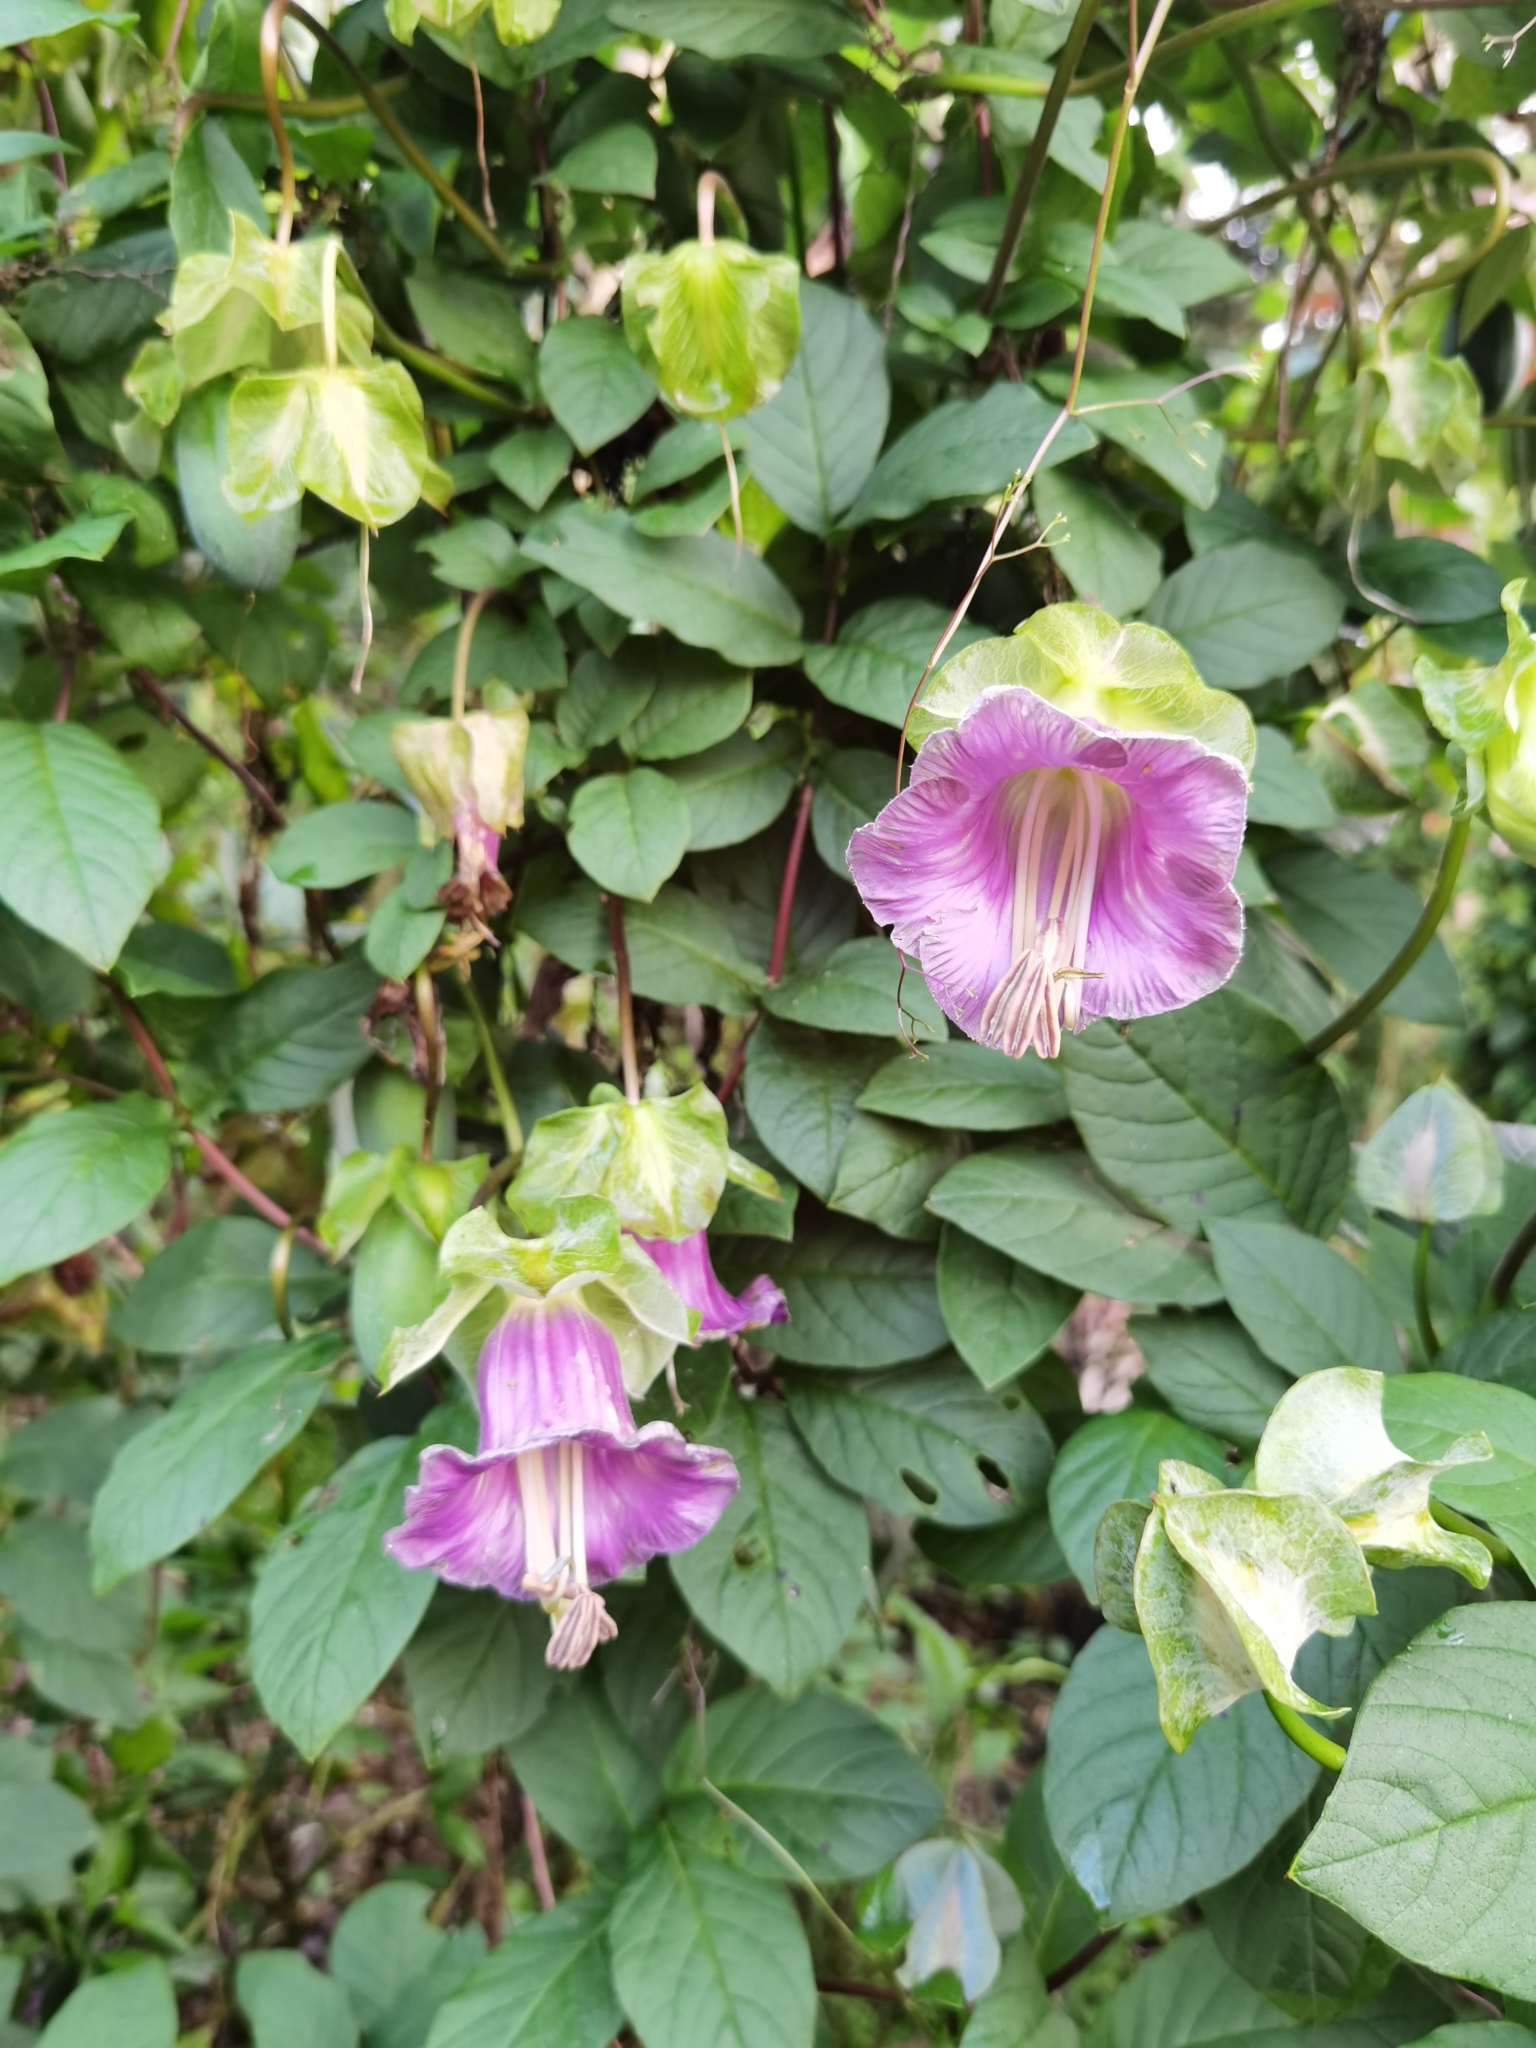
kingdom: Plantae
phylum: Tracheophyta
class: Magnoliopsida
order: Ericales
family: Polemoniaceae
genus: Cobaea
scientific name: Cobaea scandens
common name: Cup-and-saucer-vine
